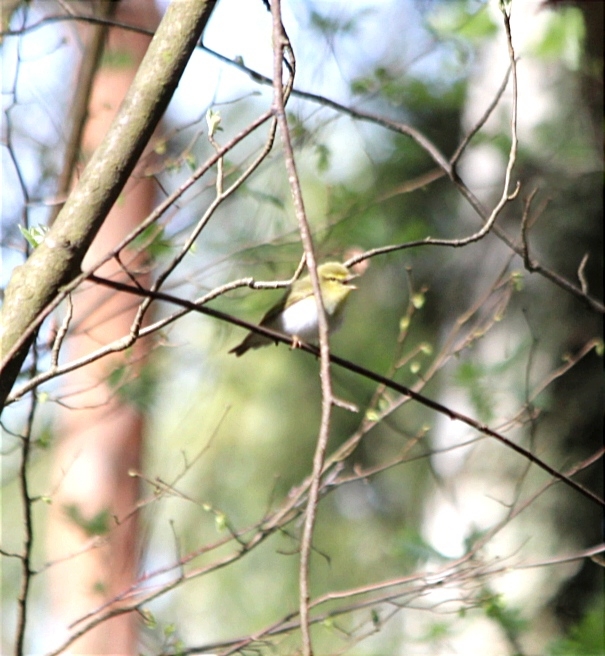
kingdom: Animalia
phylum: Chordata
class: Aves
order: Passeriformes
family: Phylloscopidae
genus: Phylloscopus
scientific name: Phylloscopus sibillatrix
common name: Wood warbler
